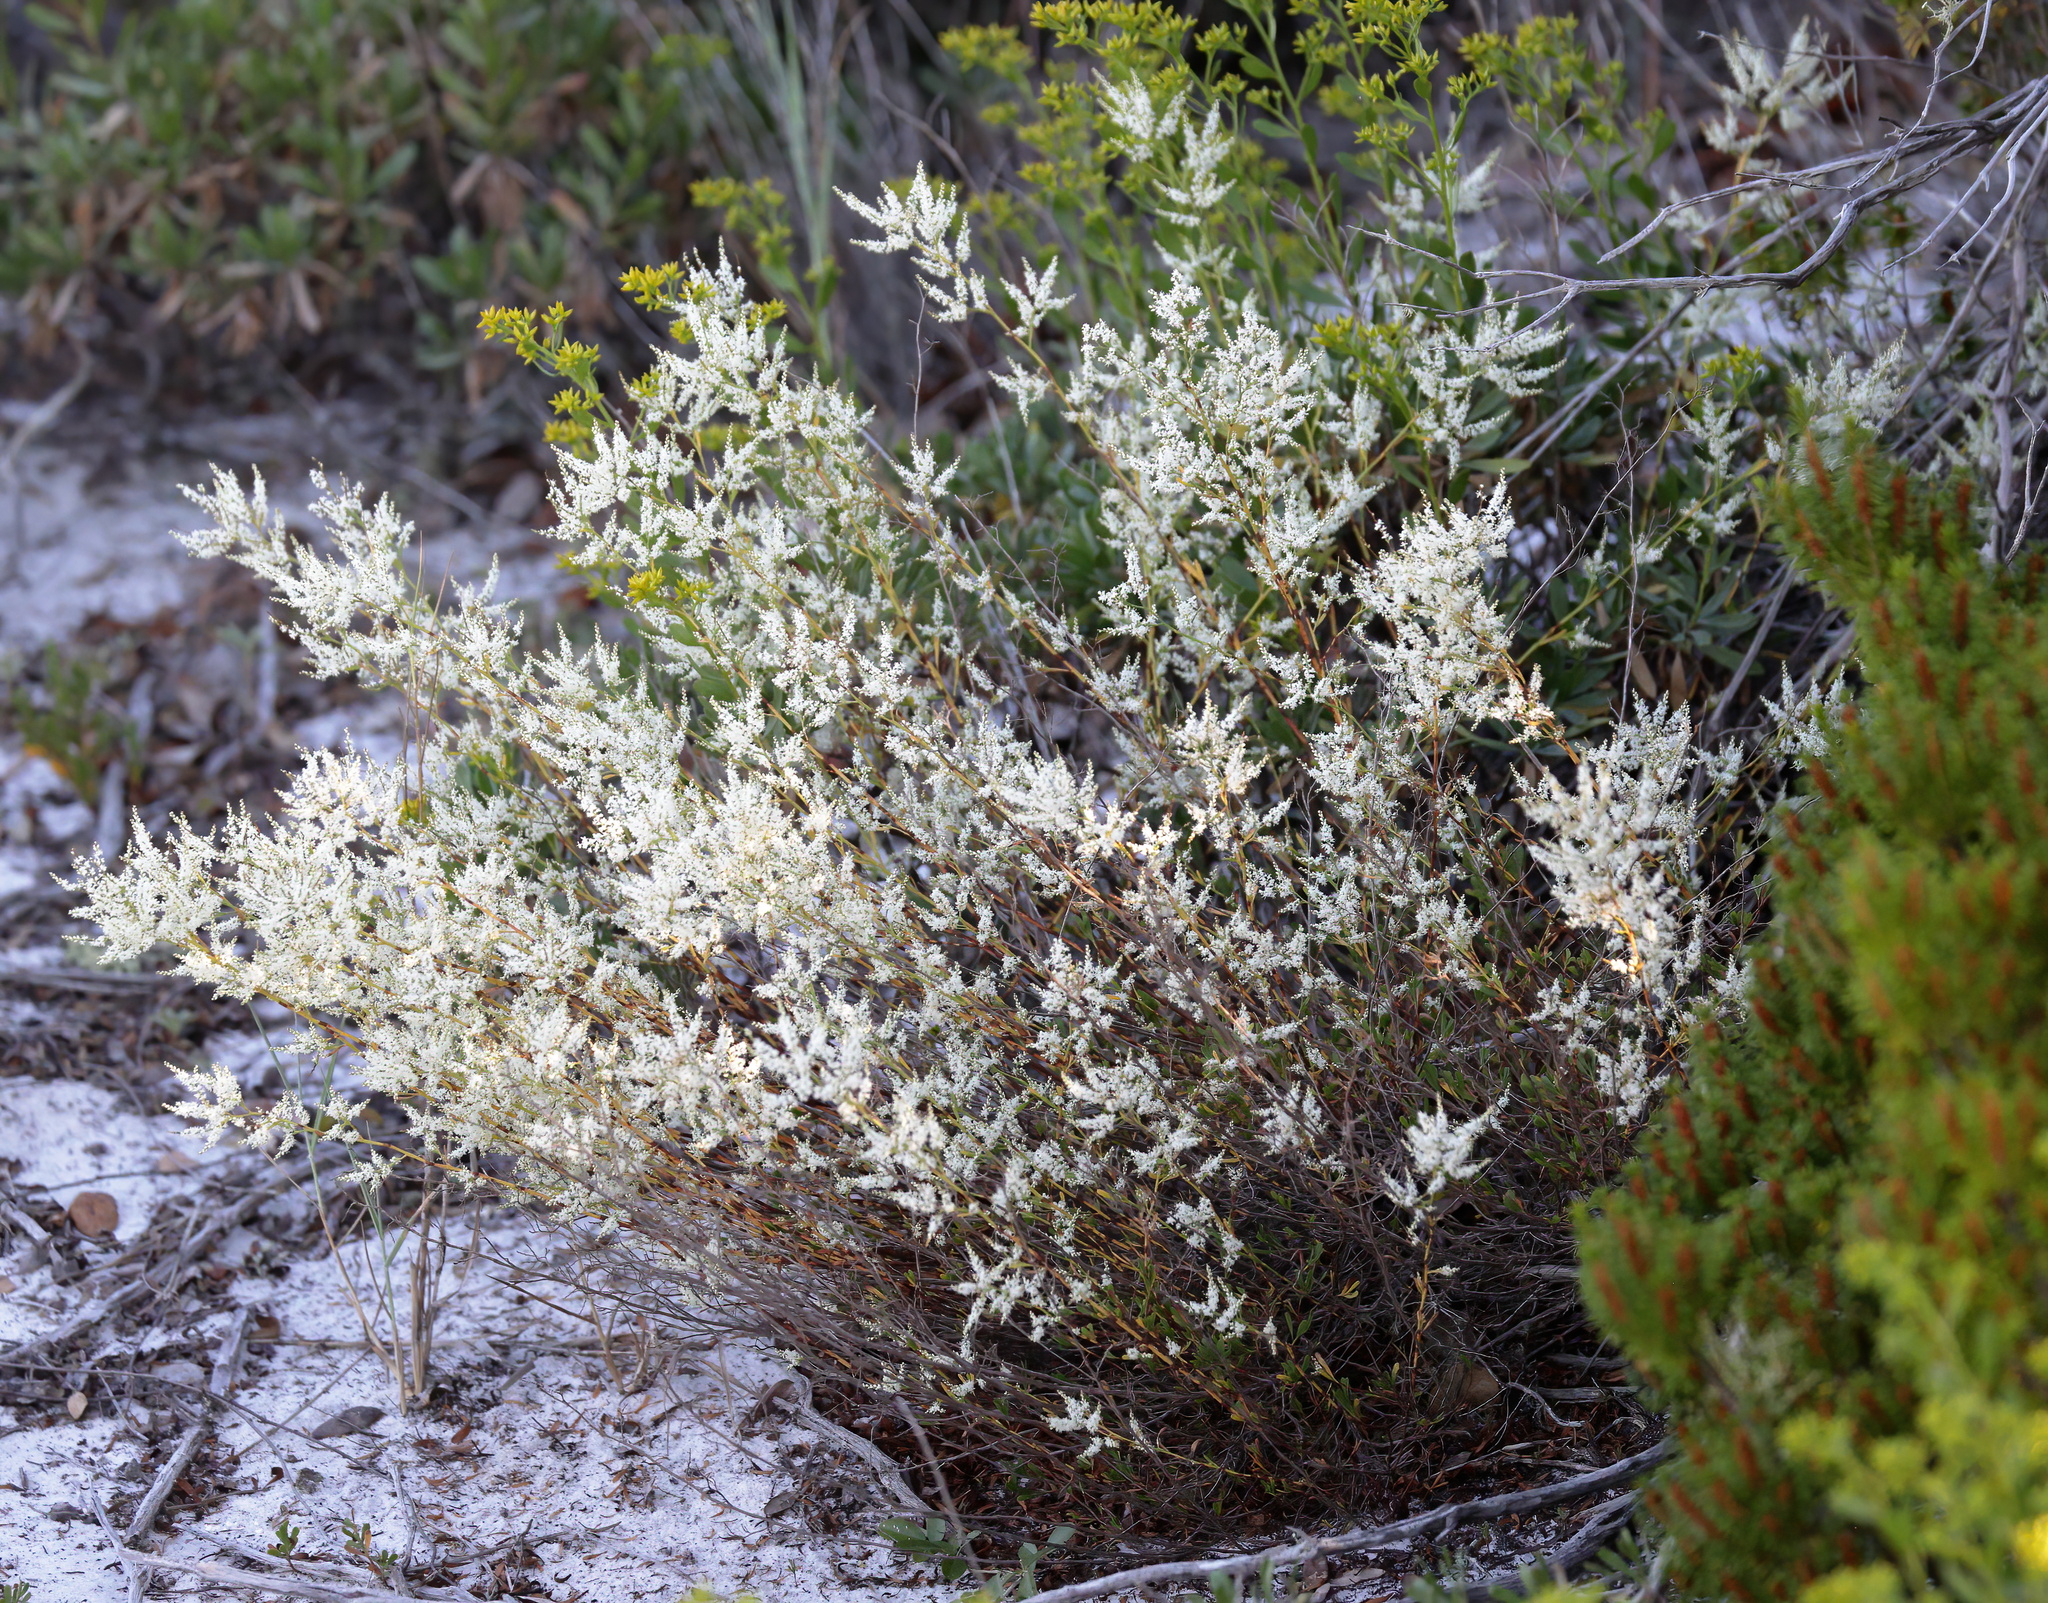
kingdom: Plantae
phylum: Tracheophyta
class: Magnoliopsida
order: Caryophyllales
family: Polygonaceae
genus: Polygonella
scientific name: Polygonella polygama
